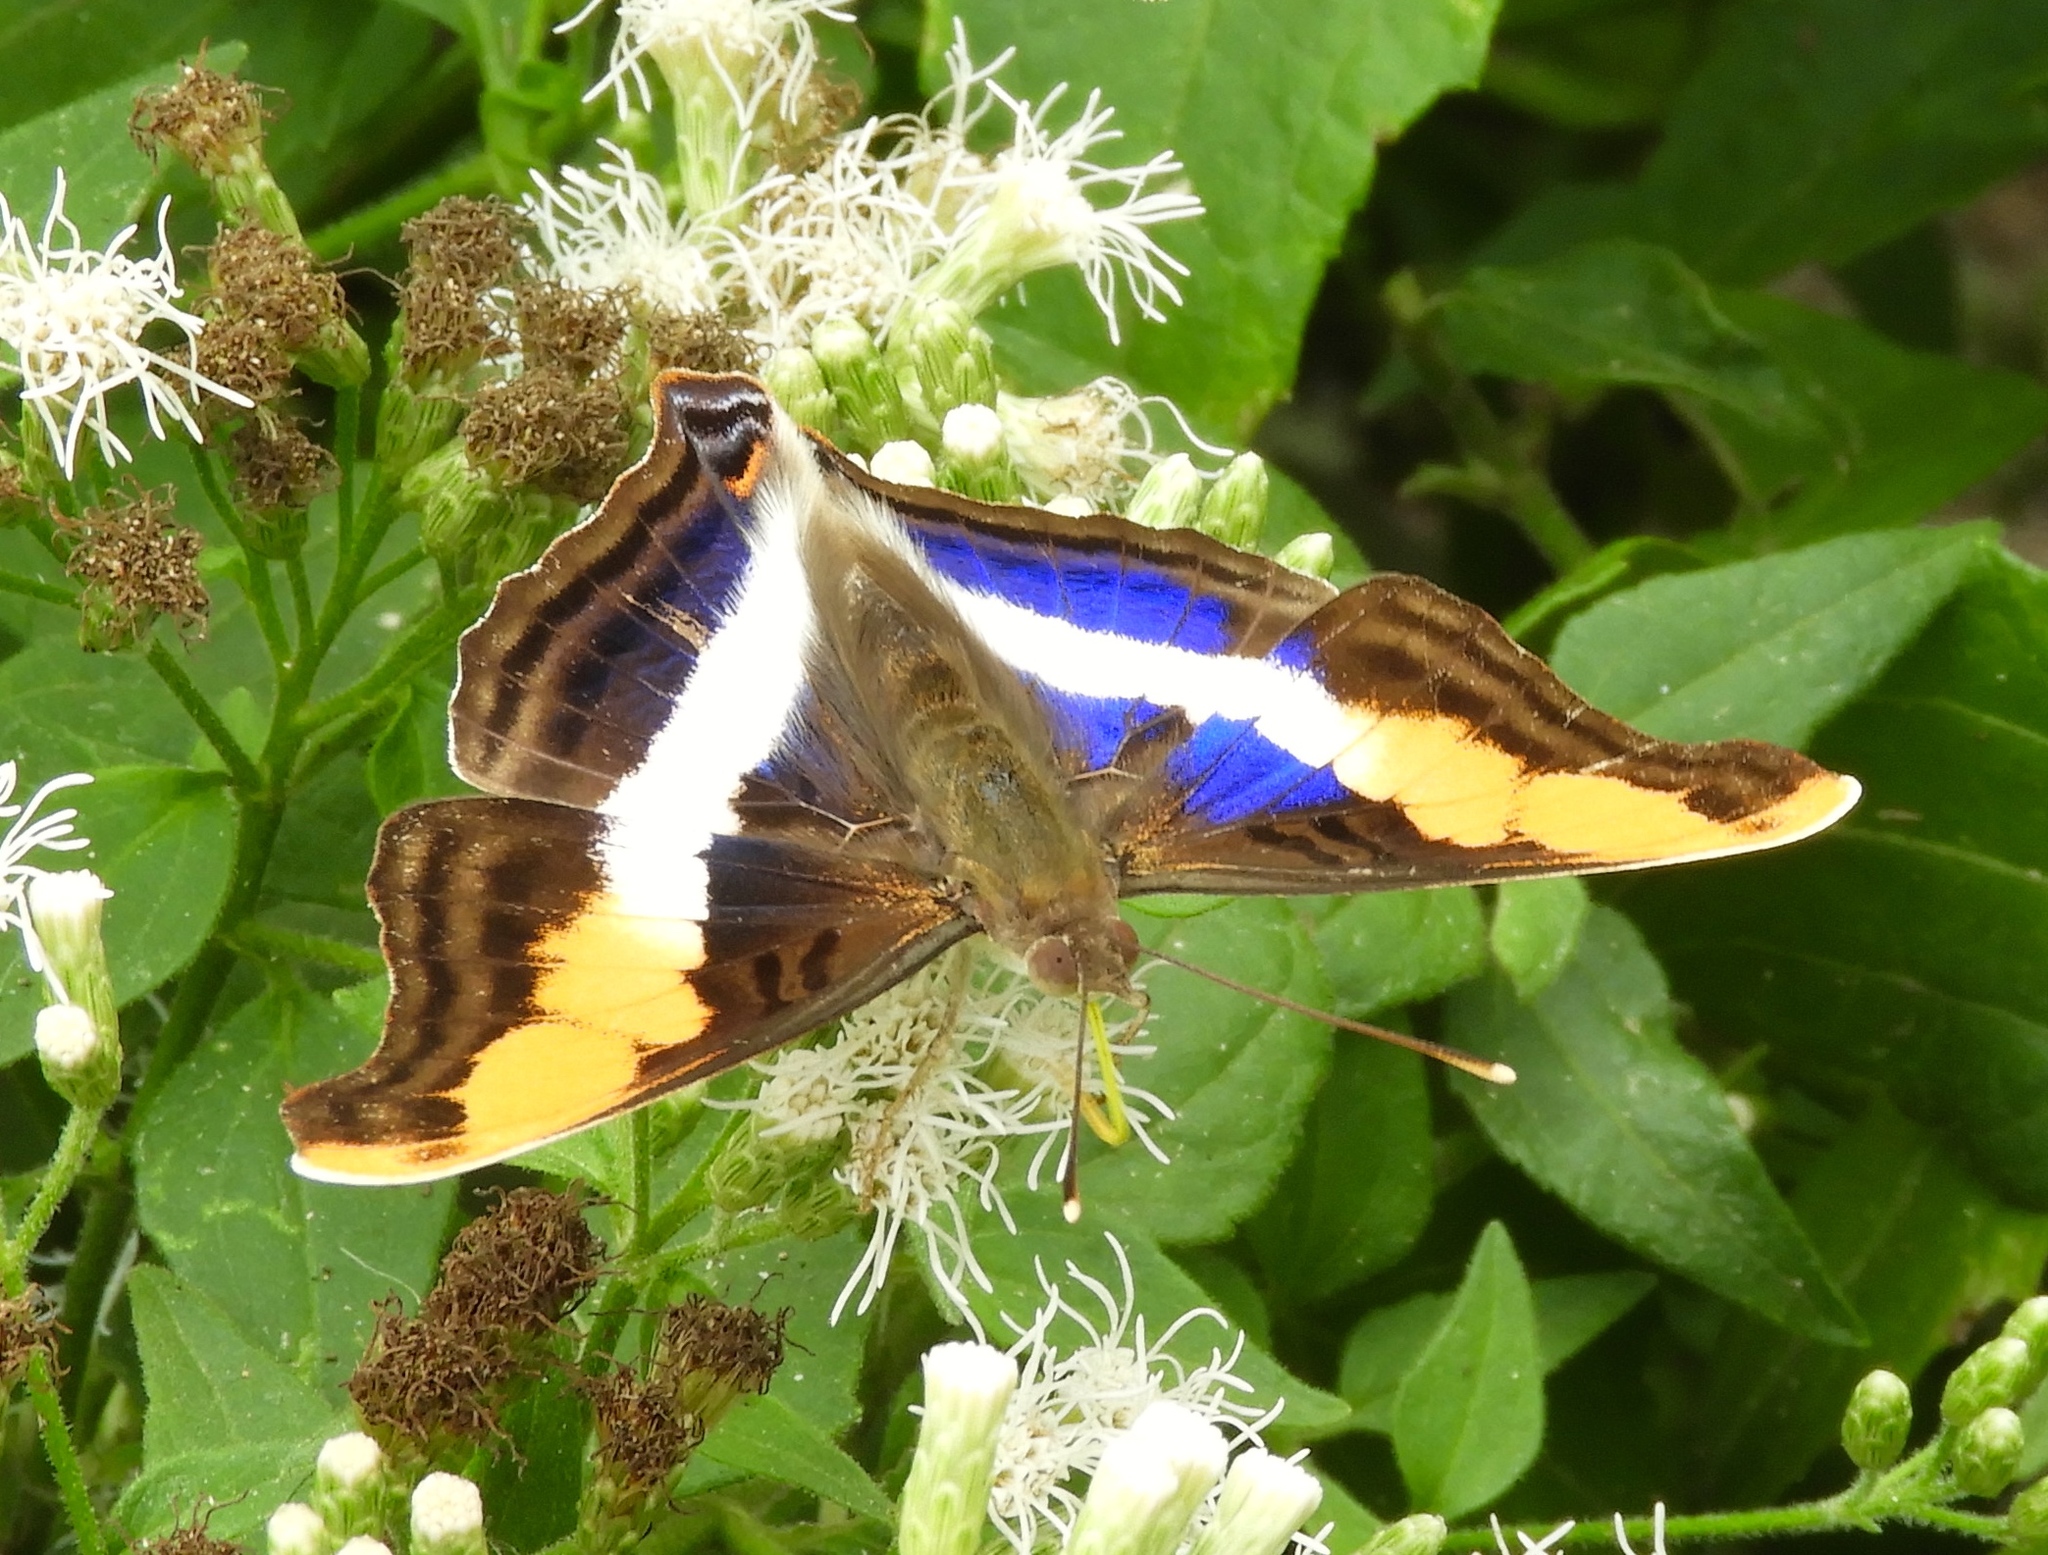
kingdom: Animalia
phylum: Arthropoda
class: Insecta
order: Lepidoptera
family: Nymphalidae
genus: Doxocopa
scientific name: Doxocopa laure
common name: Silver emperor
